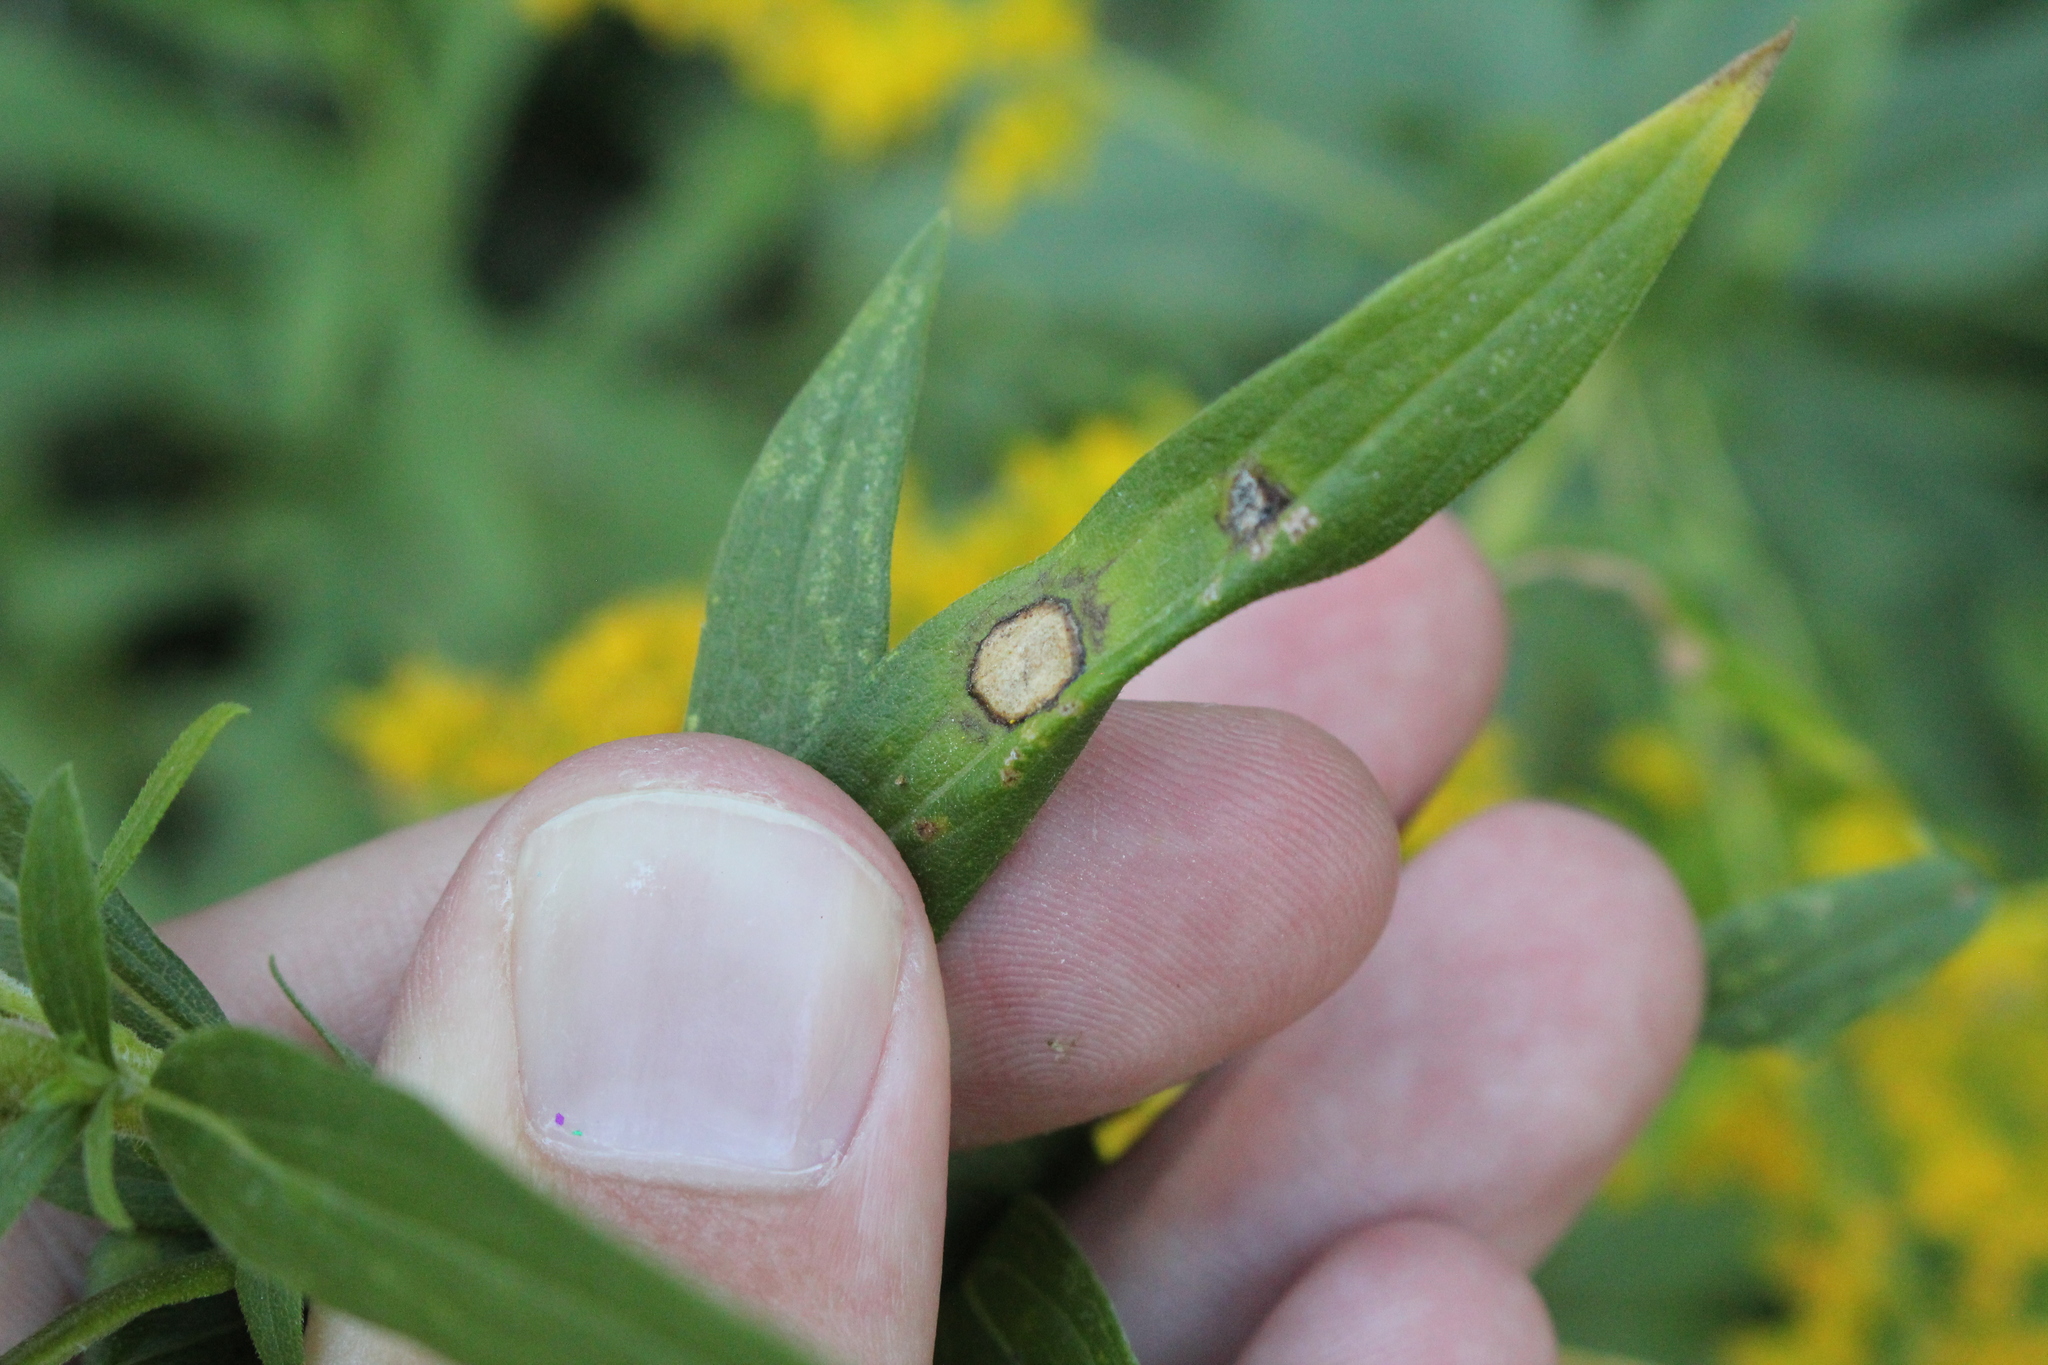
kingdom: Fungi
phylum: Ascomycota
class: Dothideomycetes
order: Botryosphaeriales
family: Botryosphaeriaceae
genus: Botryosphaeria
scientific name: Botryosphaeria dothidea
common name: Asteromyia gall midge fungus
